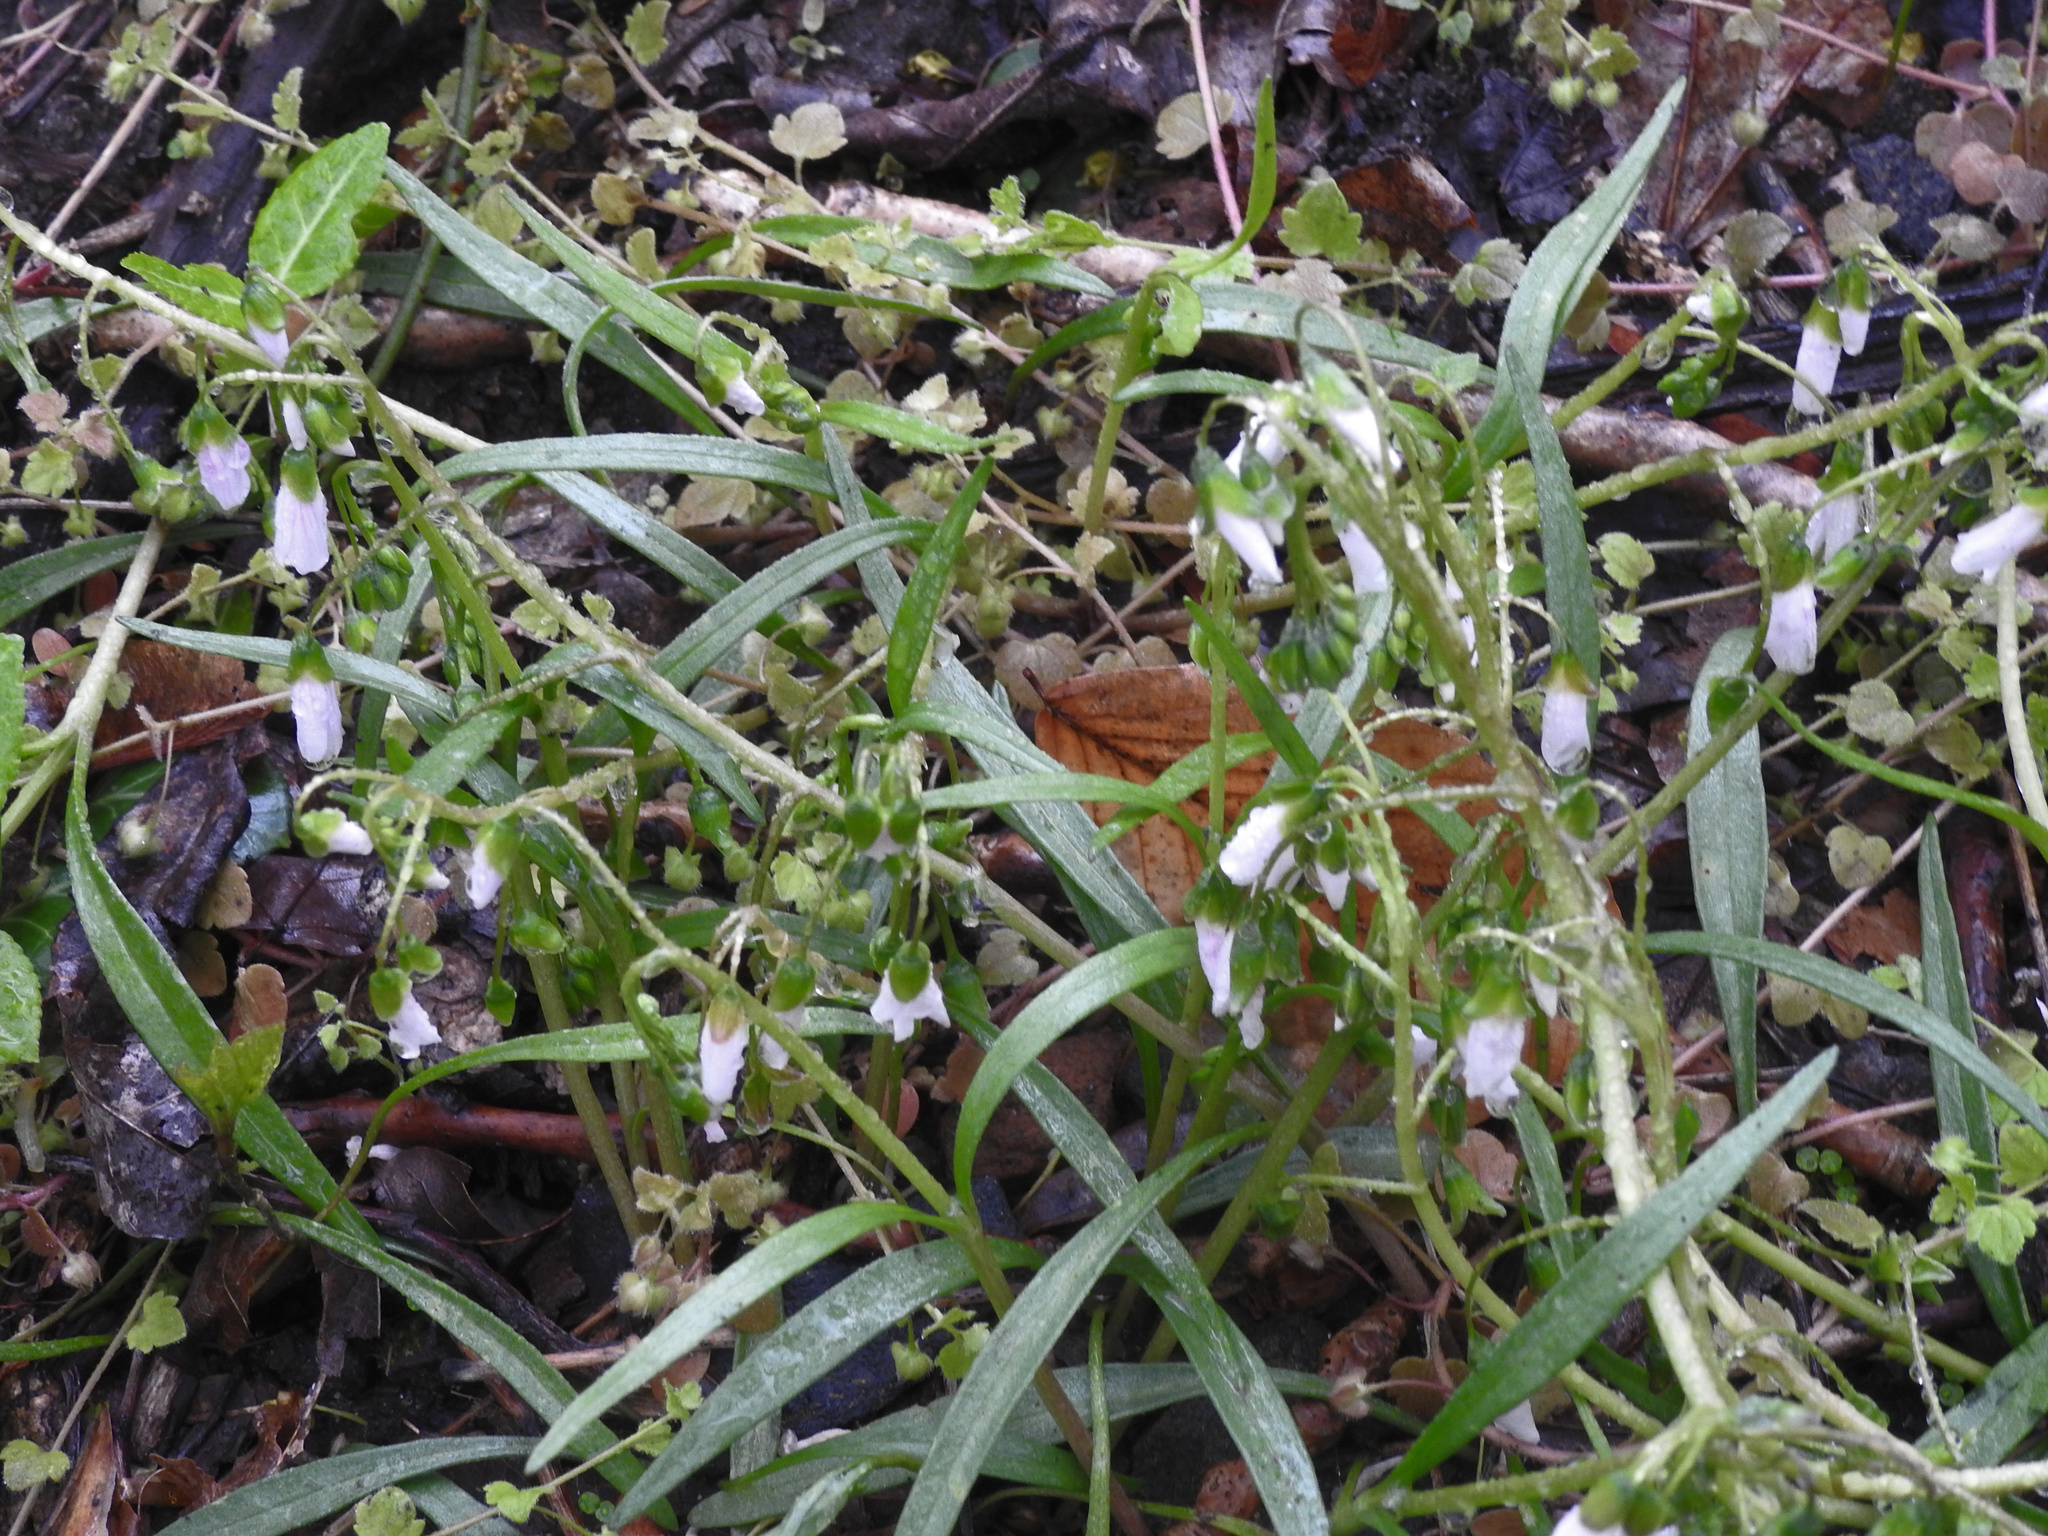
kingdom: Plantae
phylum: Tracheophyta
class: Magnoliopsida
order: Caryophyllales
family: Montiaceae
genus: Claytonia
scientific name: Claytonia virginica
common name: Virginia springbeauty
